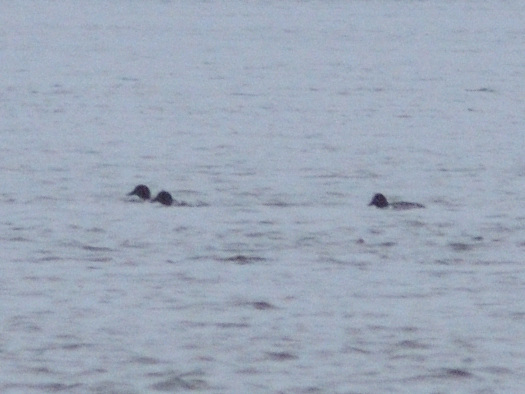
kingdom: Animalia
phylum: Chordata
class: Aves
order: Anseriformes
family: Anatidae
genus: Bucephala
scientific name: Bucephala clangula
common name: Common goldeneye
